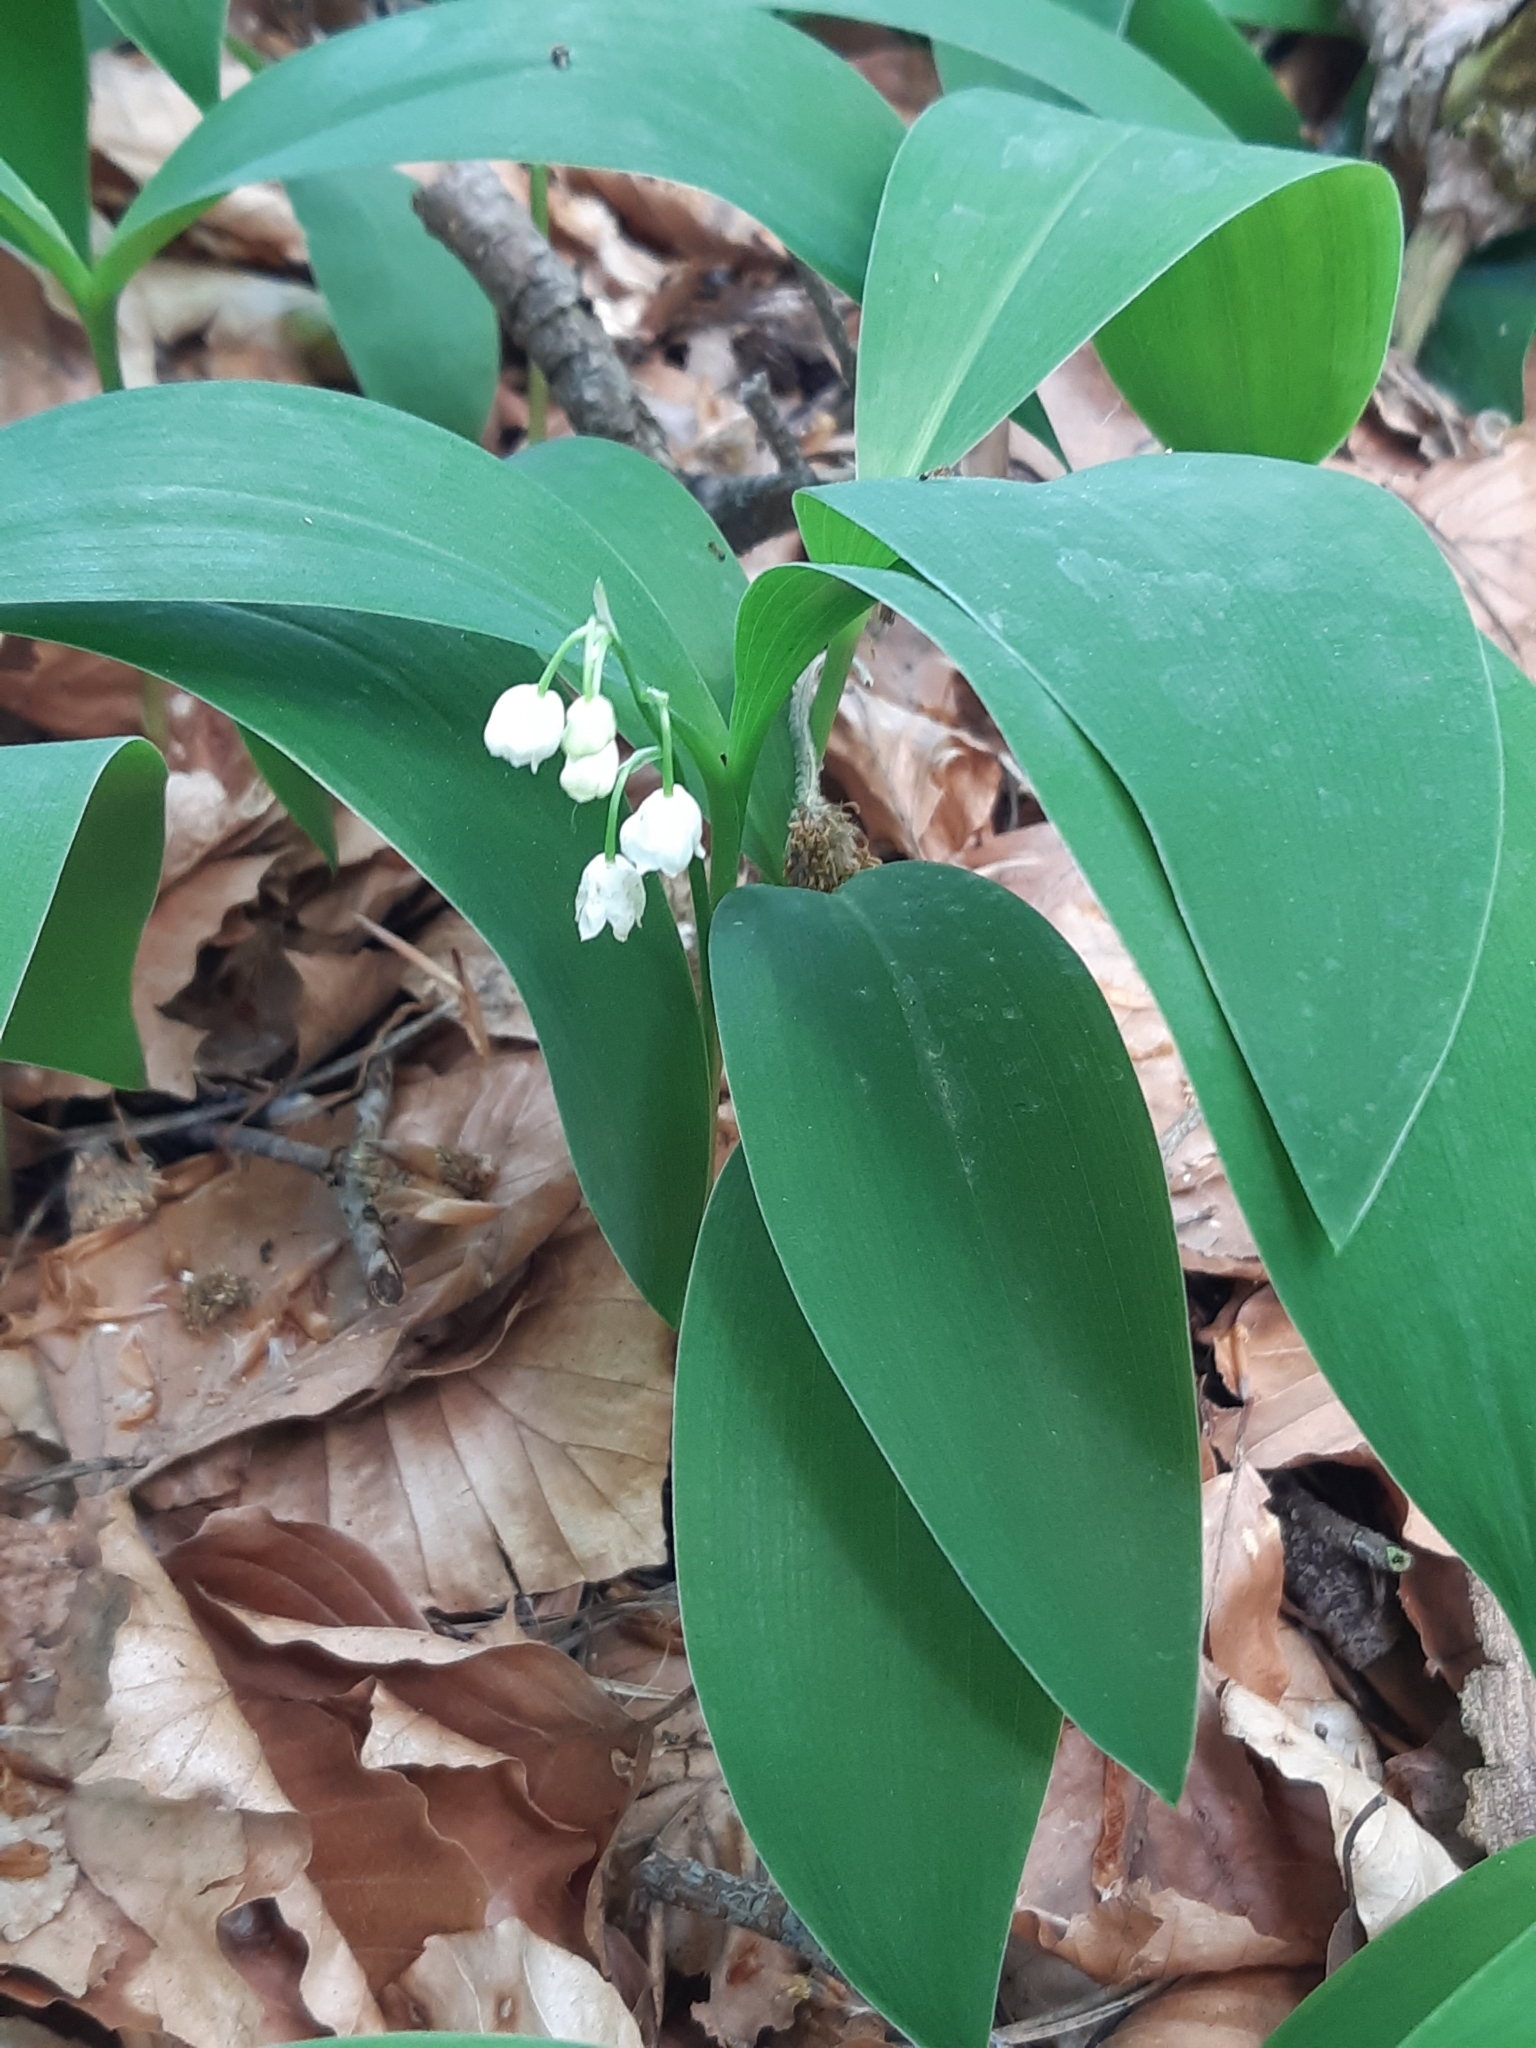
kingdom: Plantae
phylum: Tracheophyta
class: Liliopsida
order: Asparagales
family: Asparagaceae
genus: Convallaria
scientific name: Convallaria majalis
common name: Lily-of-the-valley
